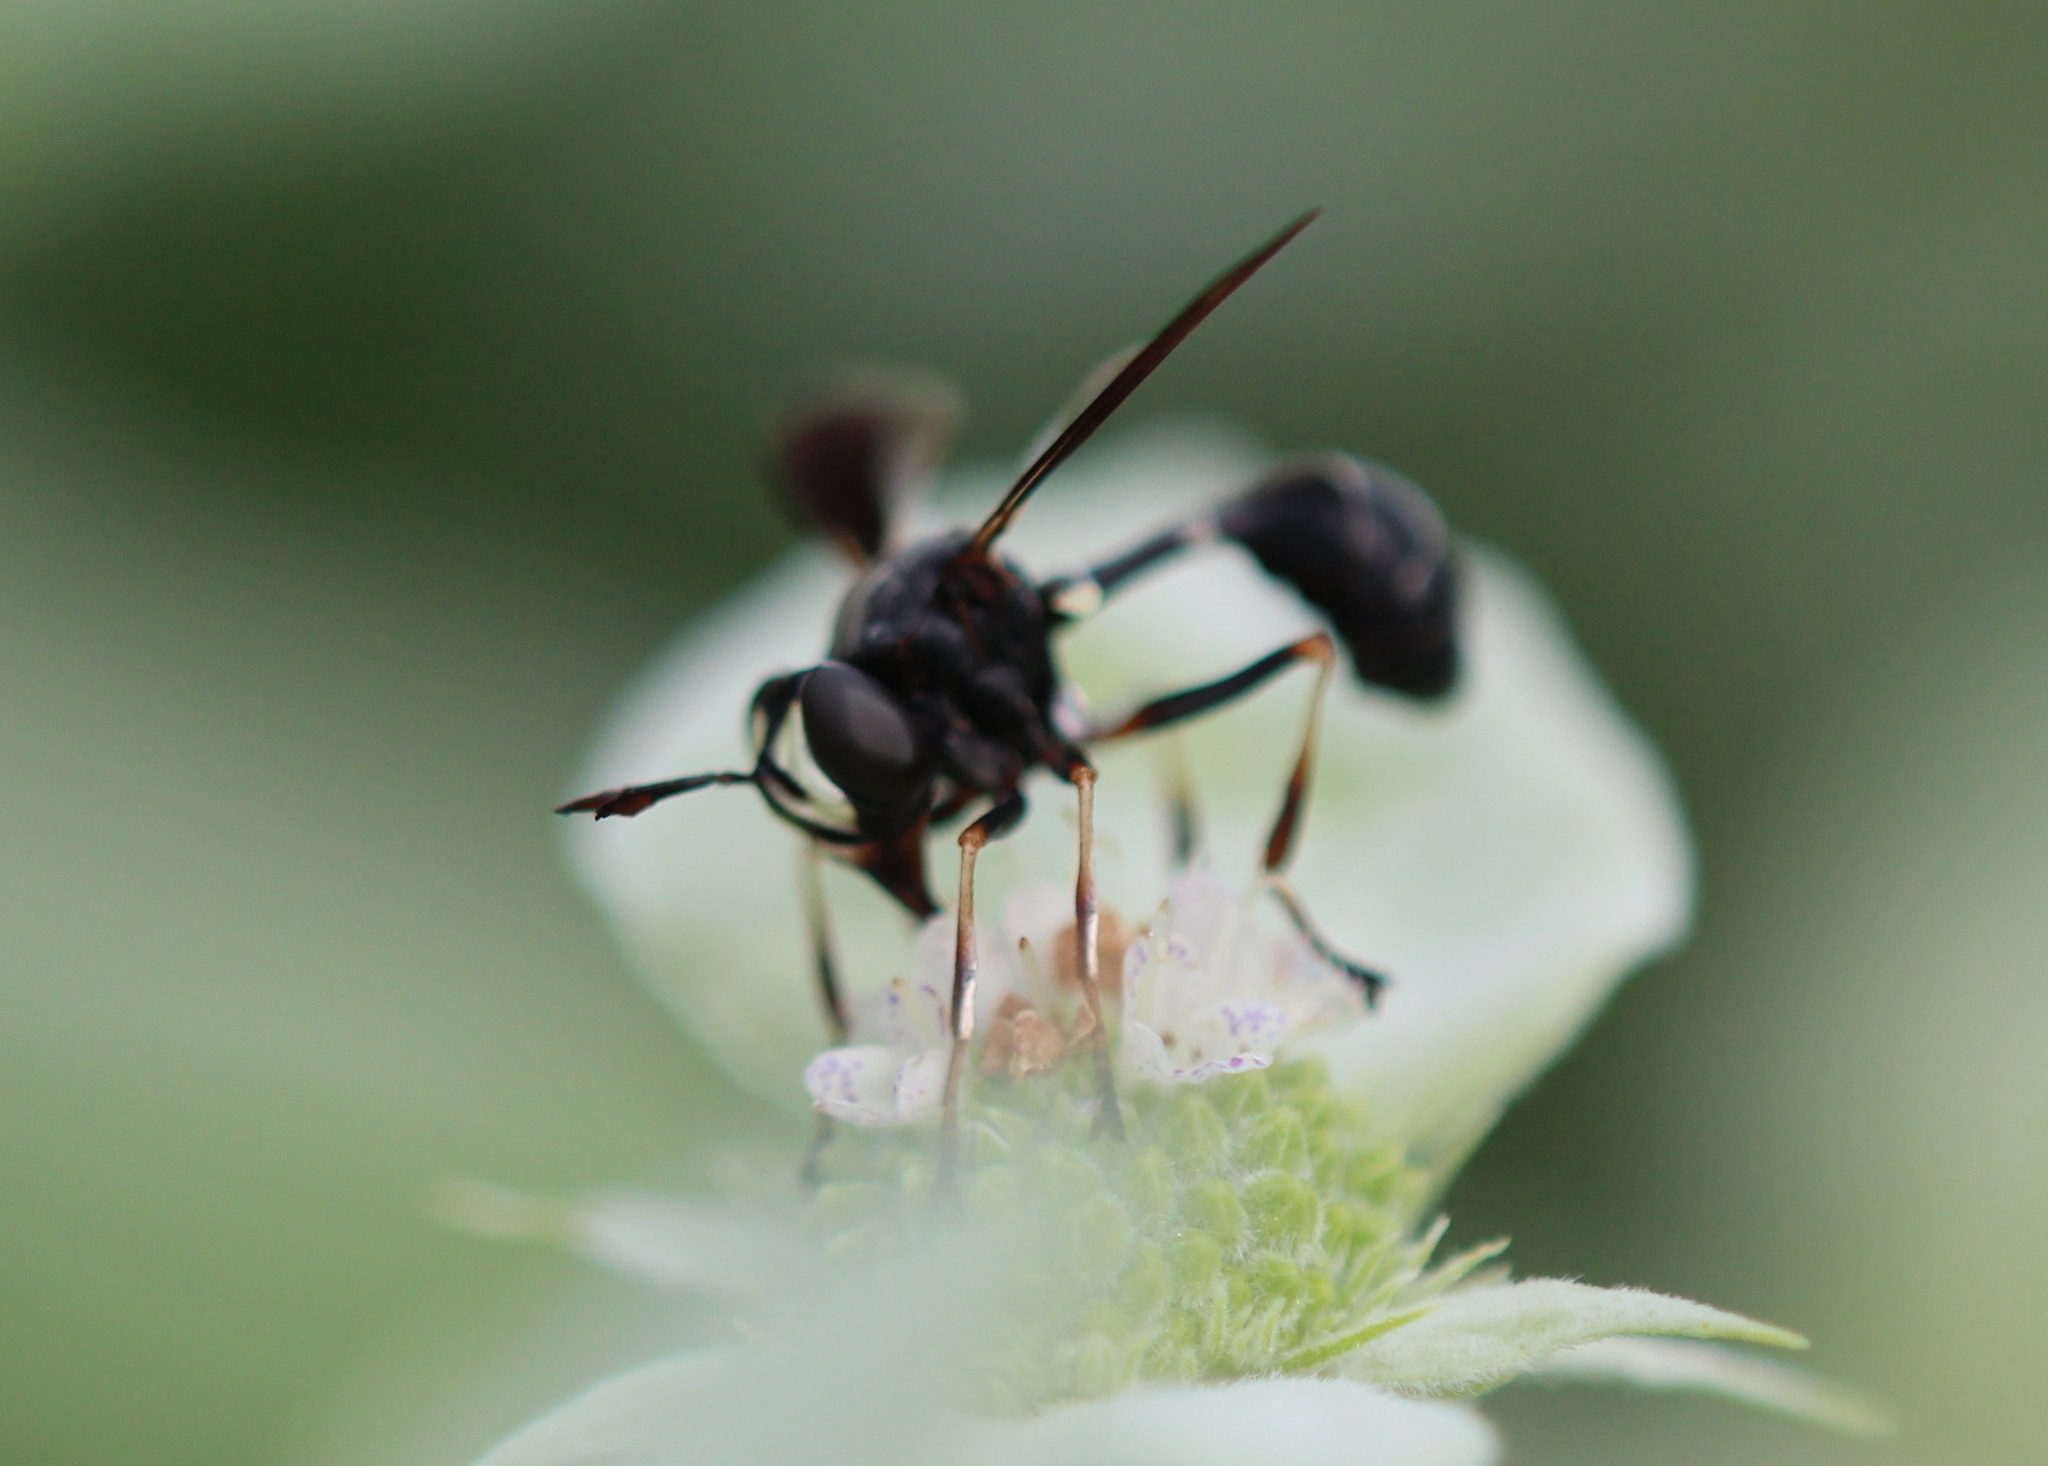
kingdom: Animalia
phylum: Arthropoda
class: Insecta
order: Diptera
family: Conopidae
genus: Physocephala
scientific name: Physocephala tibialis
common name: Common eastern physocephala
